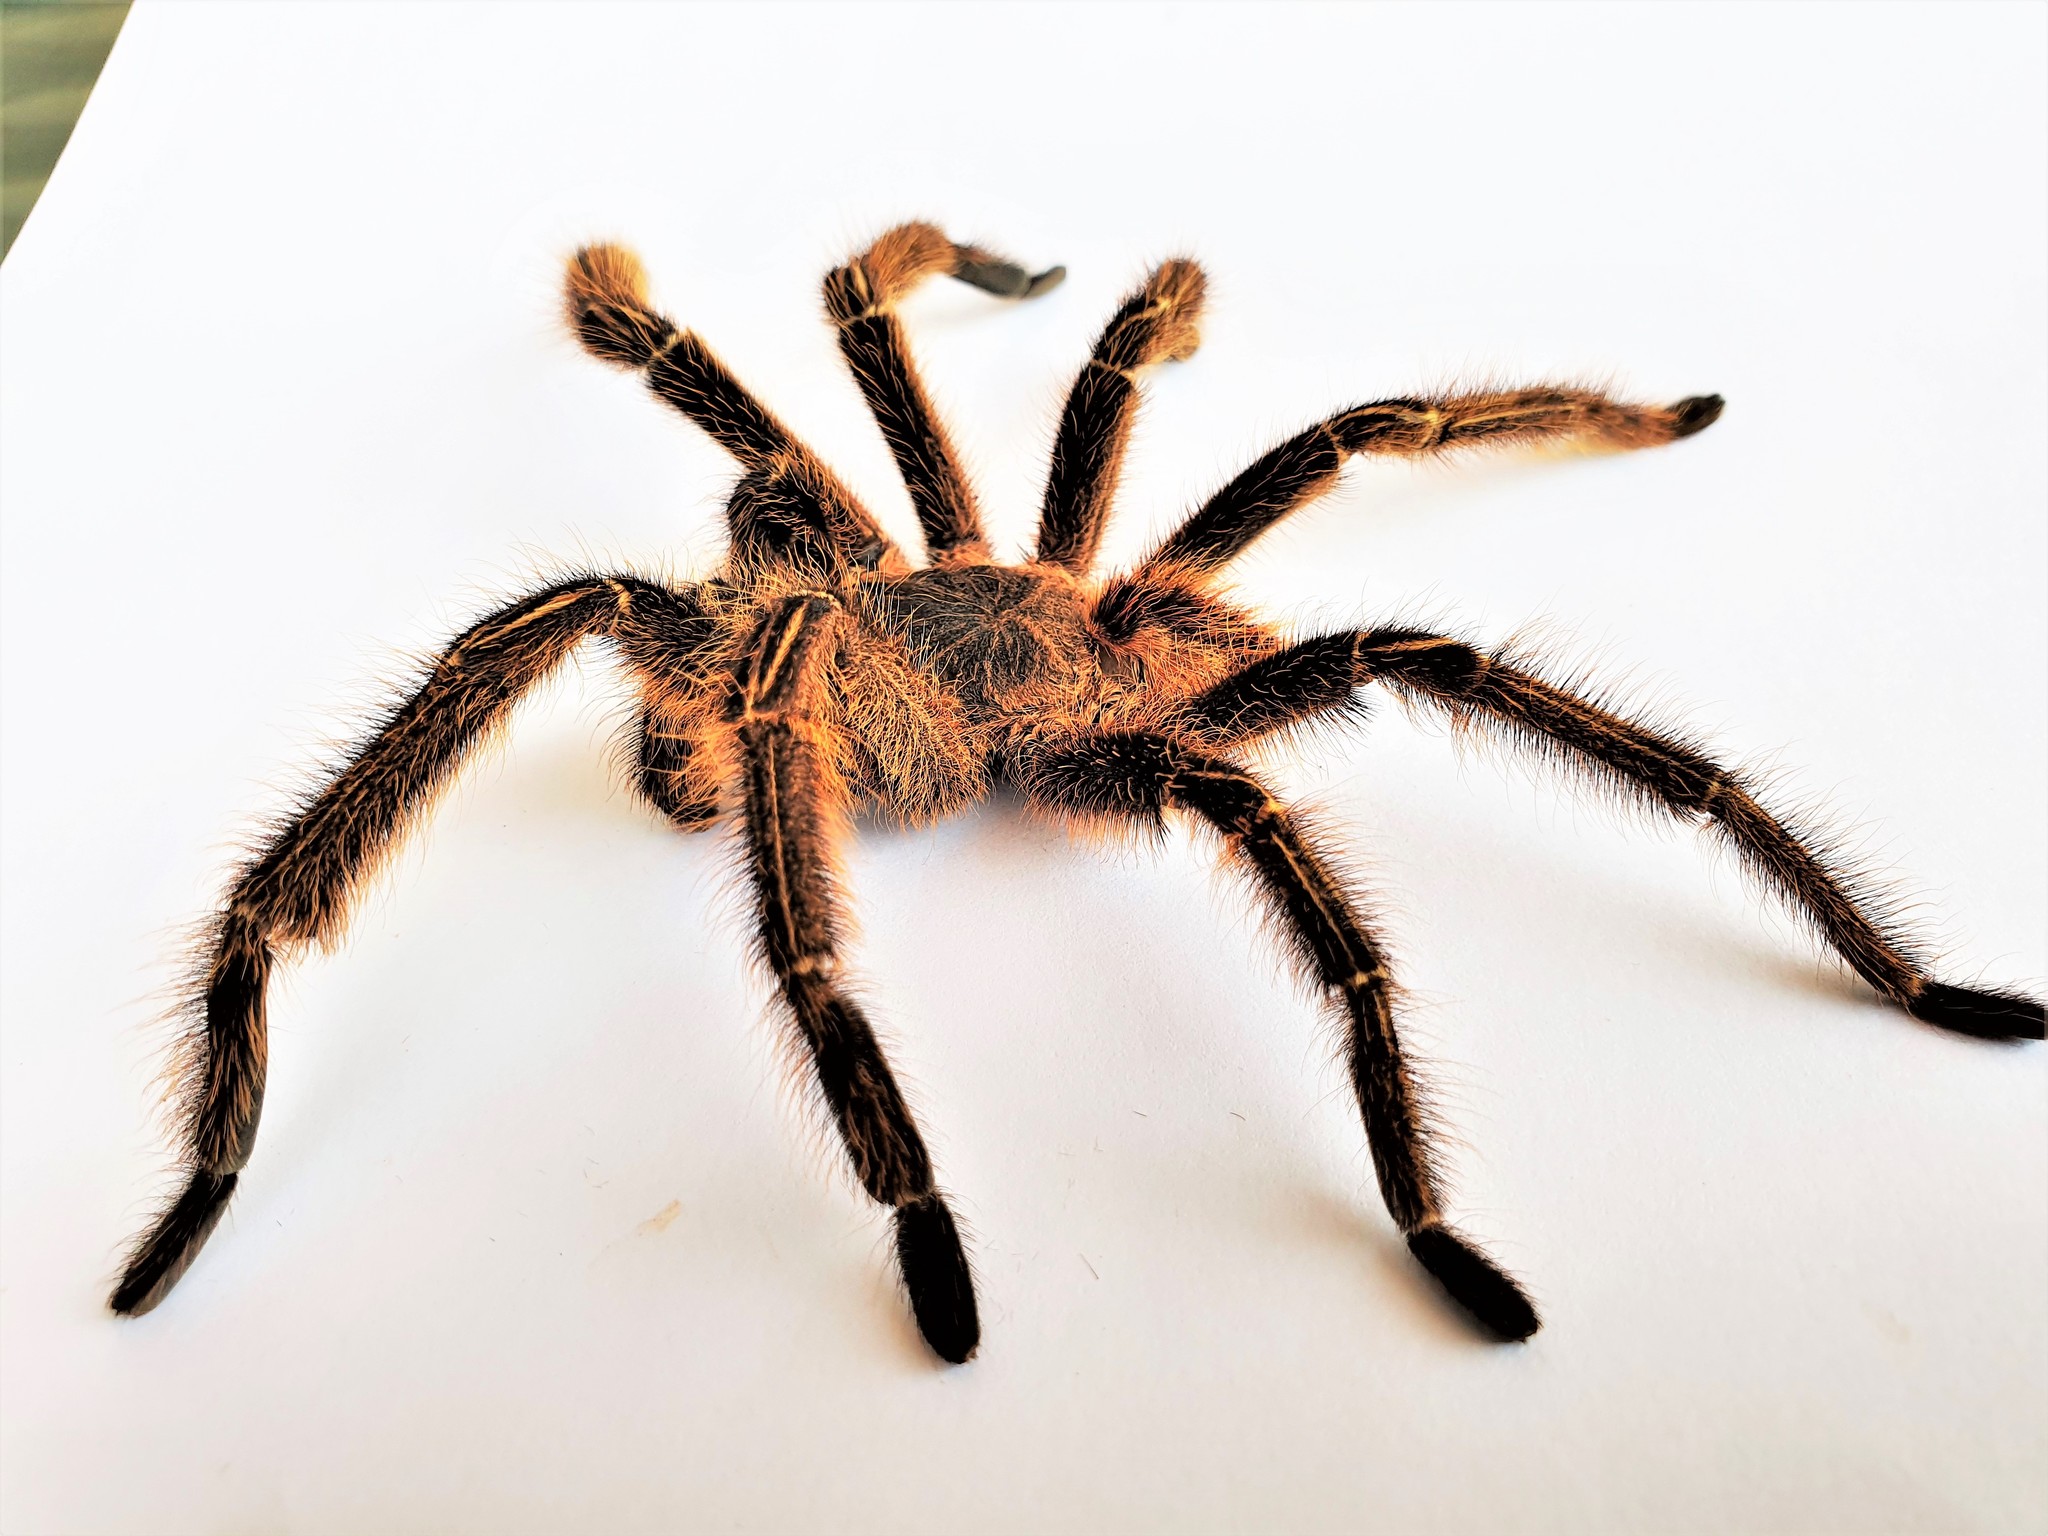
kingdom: Animalia
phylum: Arthropoda
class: Arachnida
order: Araneae
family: Theraphosidae
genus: Ephebopus
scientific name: Ephebopus murinus
